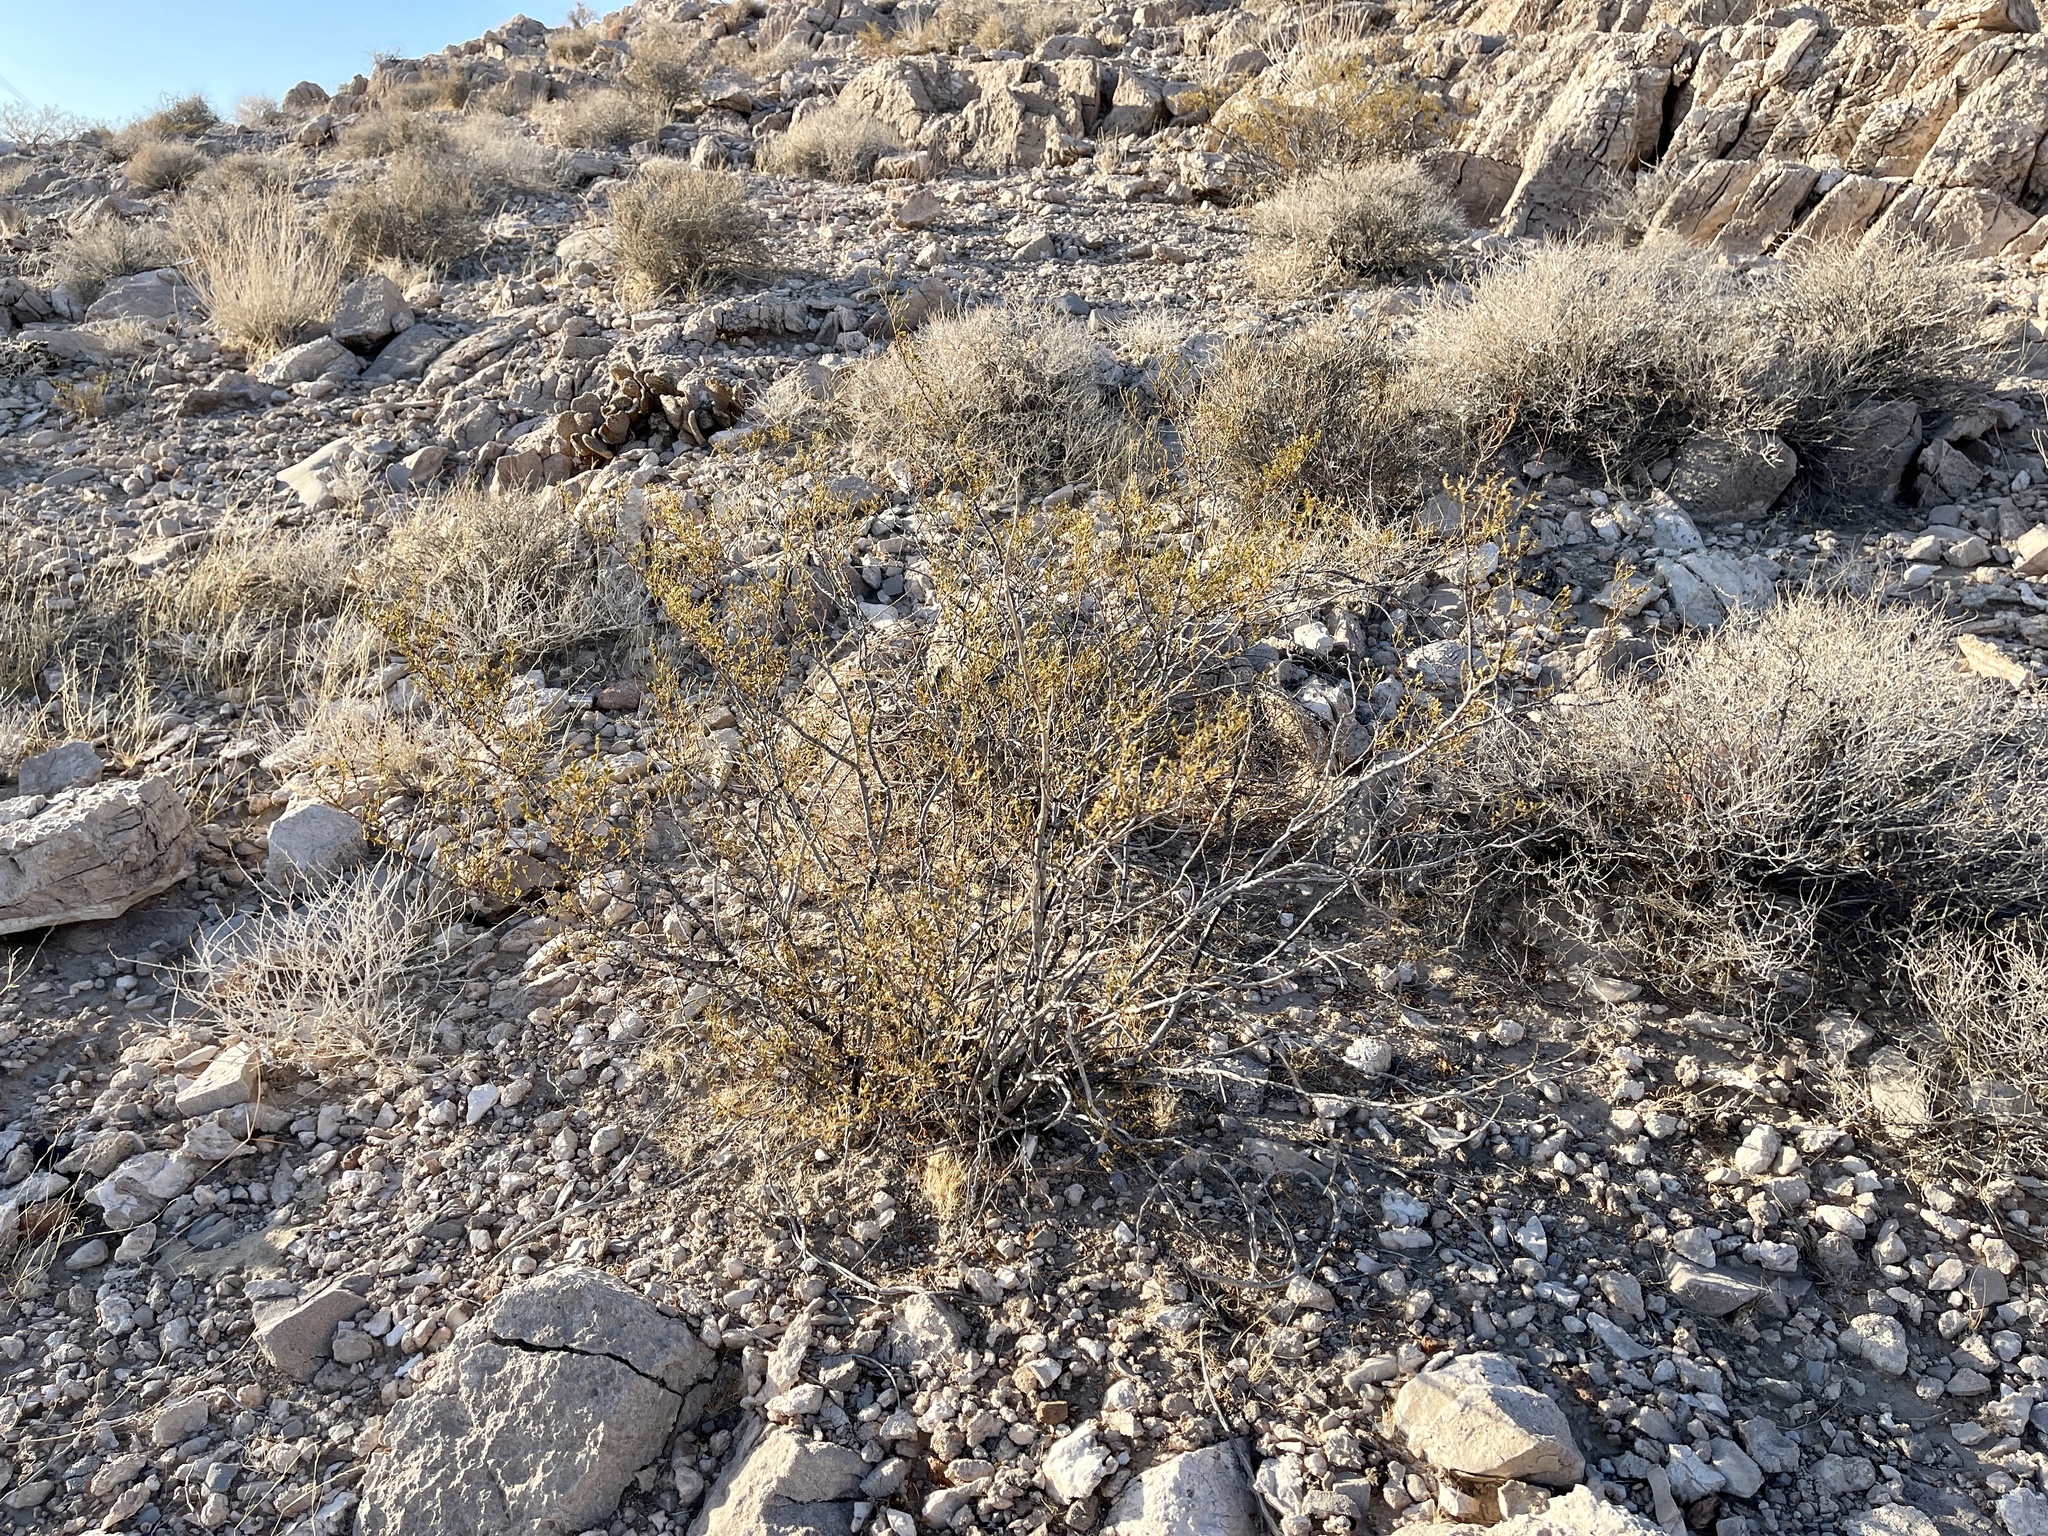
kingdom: Plantae
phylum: Tracheophyta
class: Magnoliopsida
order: Zygophyllales
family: Zygophyllaceae
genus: Larrea
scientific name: Larrea tridentata
